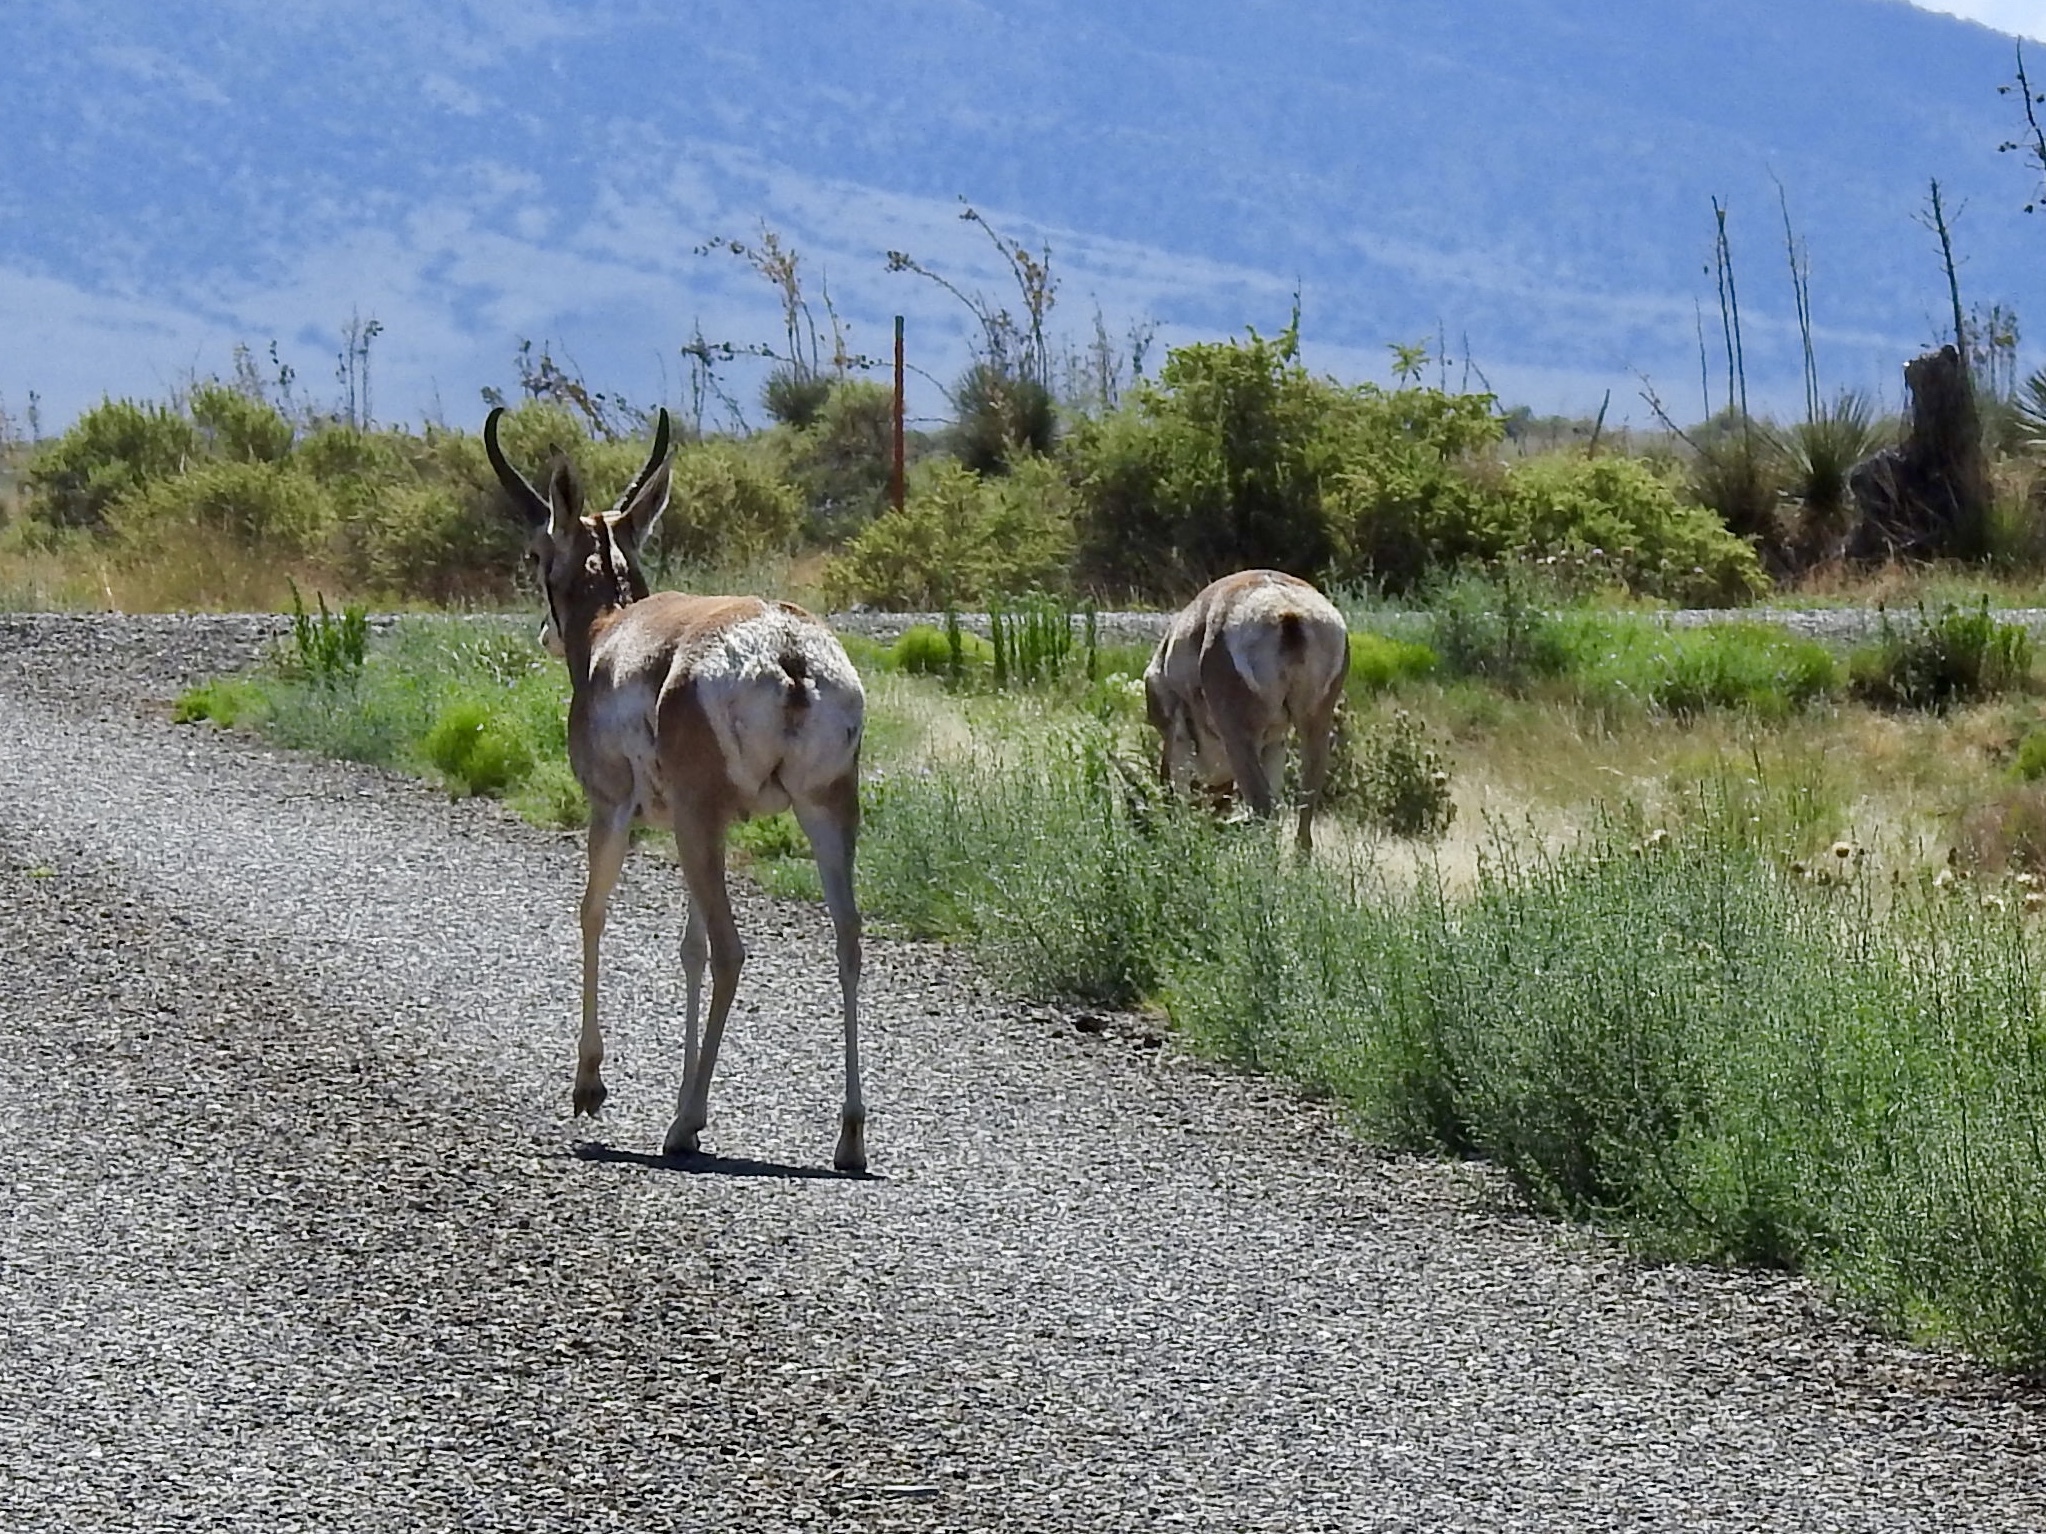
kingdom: Animalia
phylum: Chordata
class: Mammalia
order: Artiodactyla
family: Antilocapridae
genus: Antilocapra
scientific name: Antilocapra americana
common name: Pronghorn
